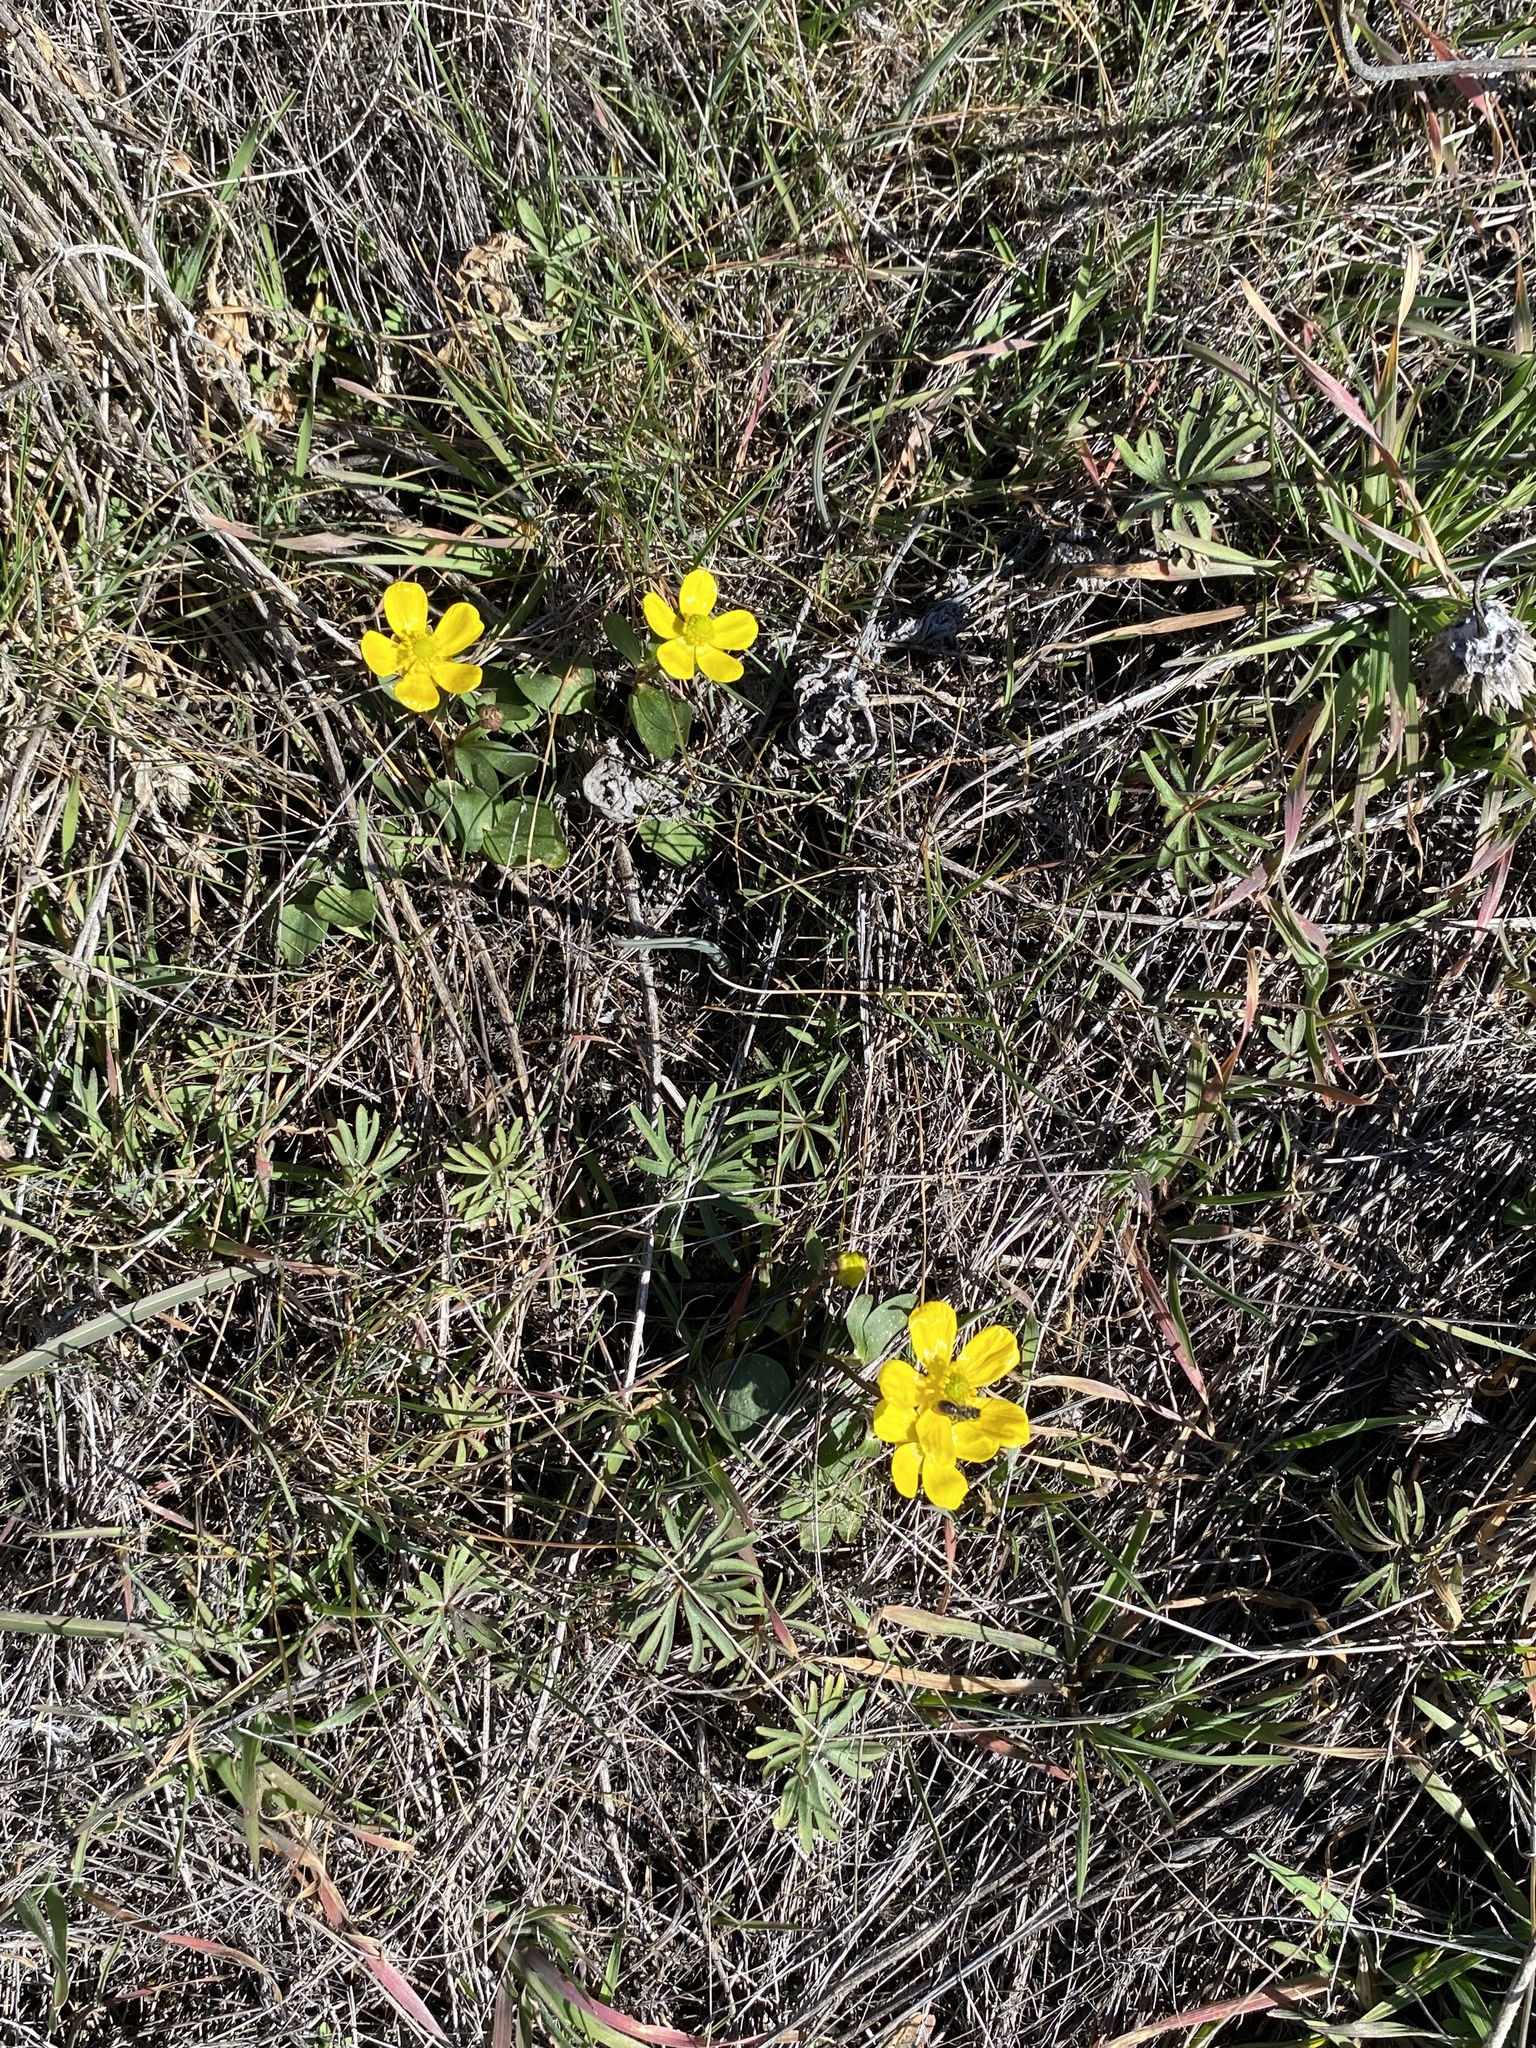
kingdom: Plantae
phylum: Tracheophyta
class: Magnoliopsida
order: Ranunculales
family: Ranunculaceae
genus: Ranunculus
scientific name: Ranunculus glaberrimus
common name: Sagebrush buttercup
